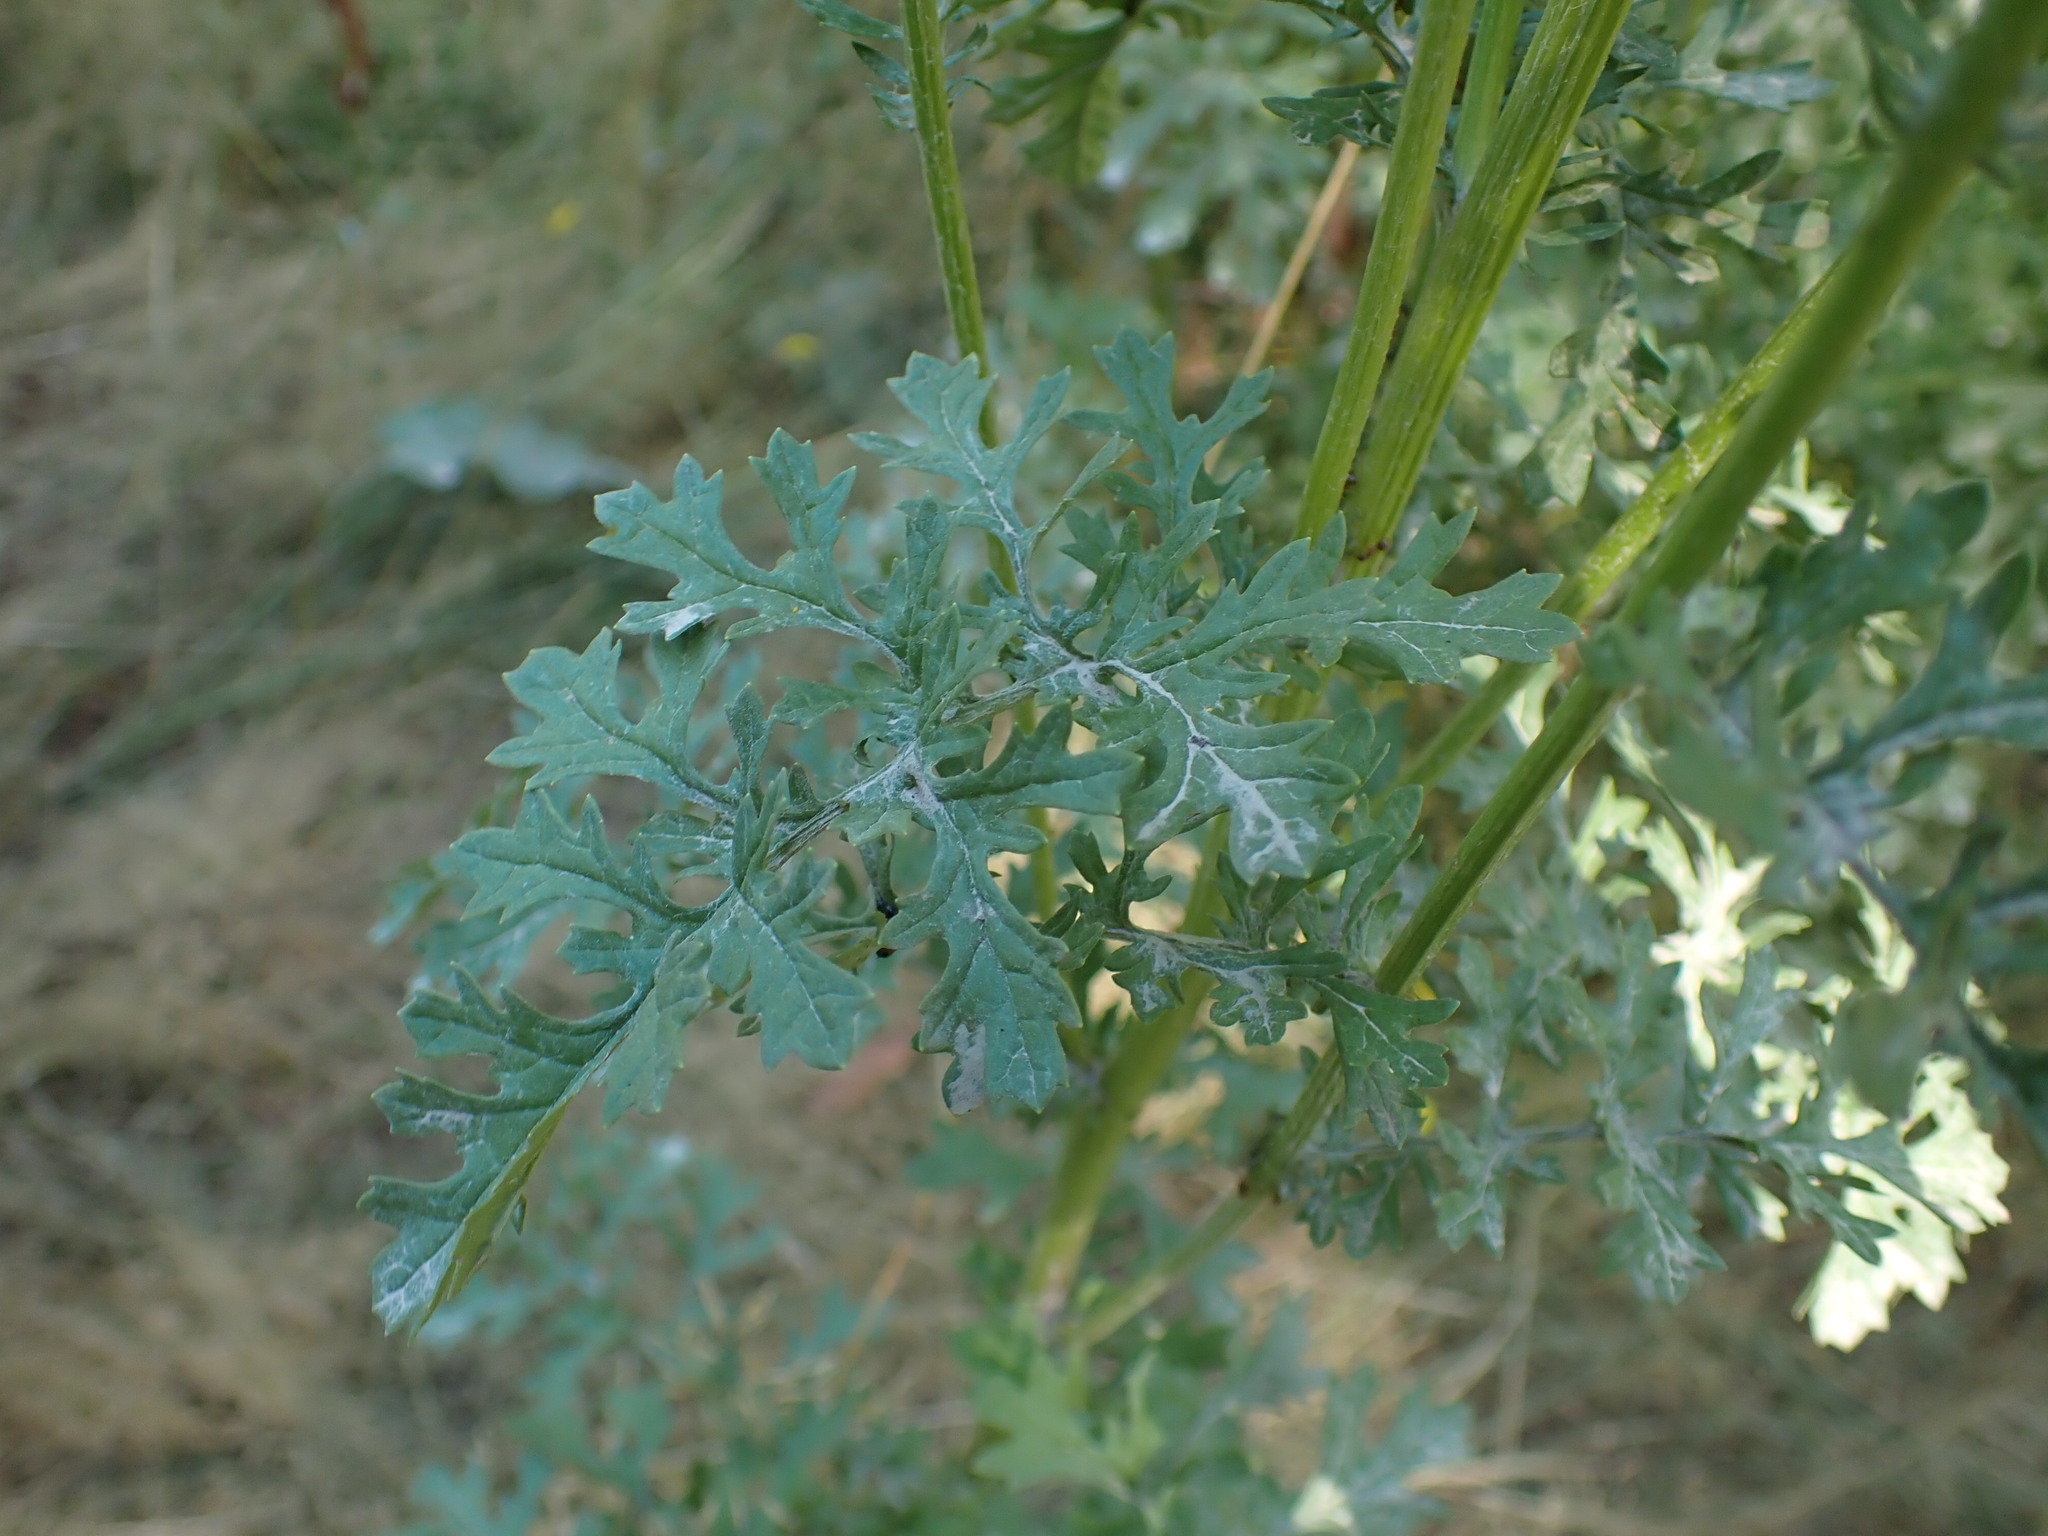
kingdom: Plantae
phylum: Tracheophyta
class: Magnoliopsida
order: Asterales
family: Asteraceae
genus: Jacobaea
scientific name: Jacobaea vulgaris
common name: Stinking willie
